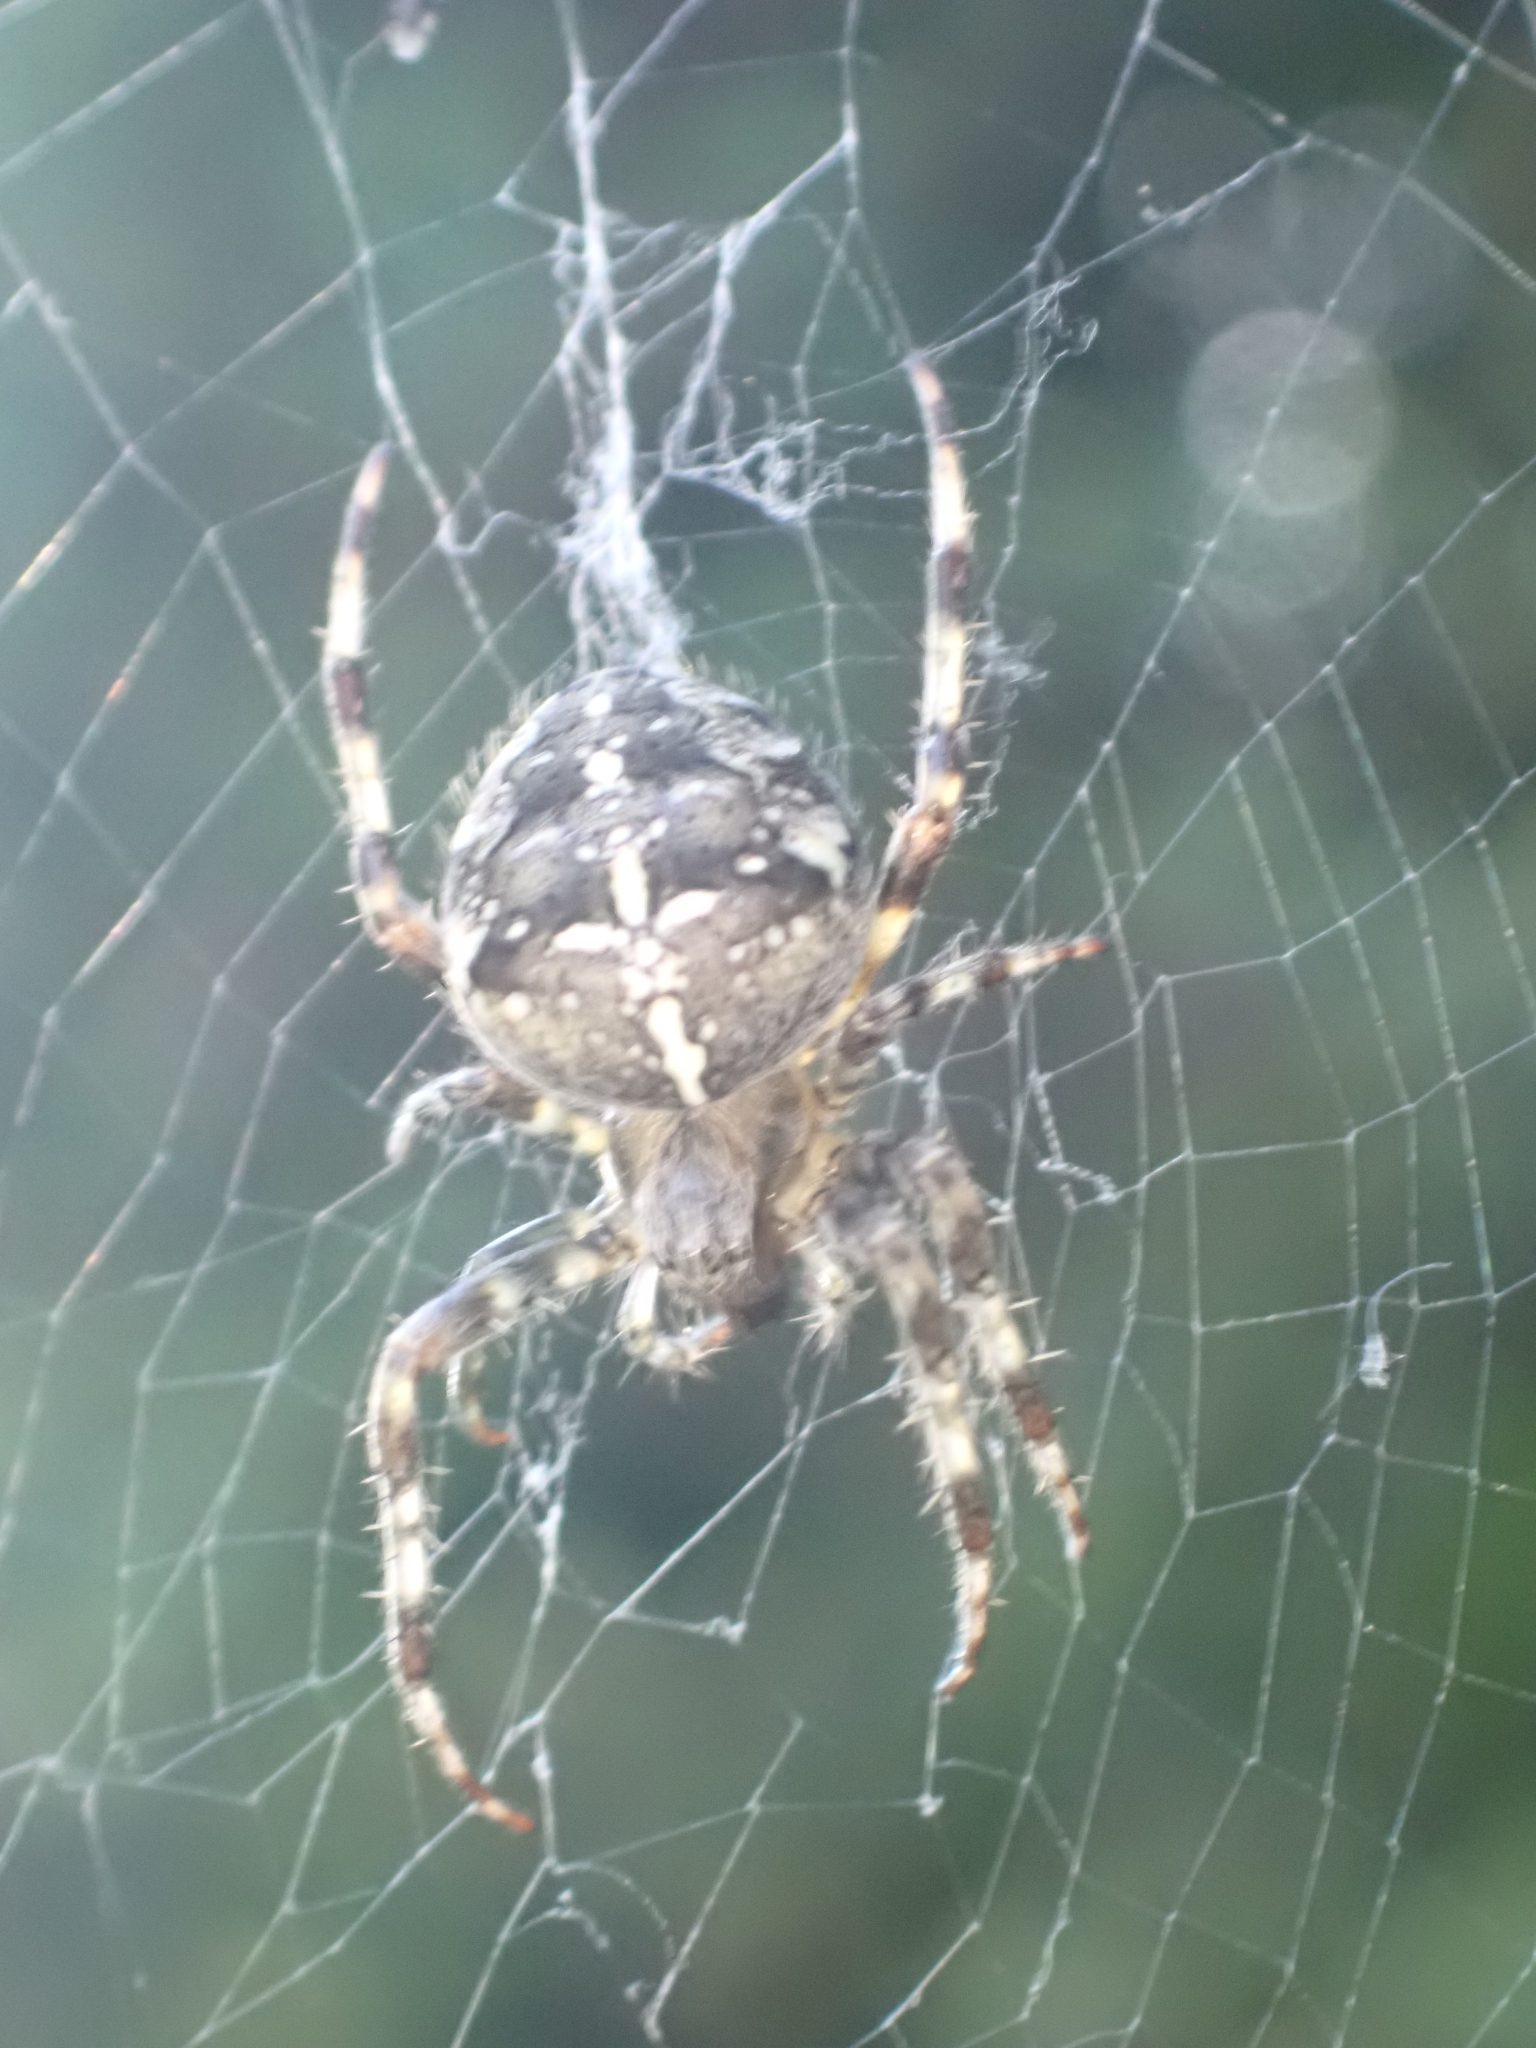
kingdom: Animalia
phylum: Arthropoda
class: Arachnida
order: Araneae
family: Araneidae
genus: Araneus
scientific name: Araneus diadematus
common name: Cross orbweaver
